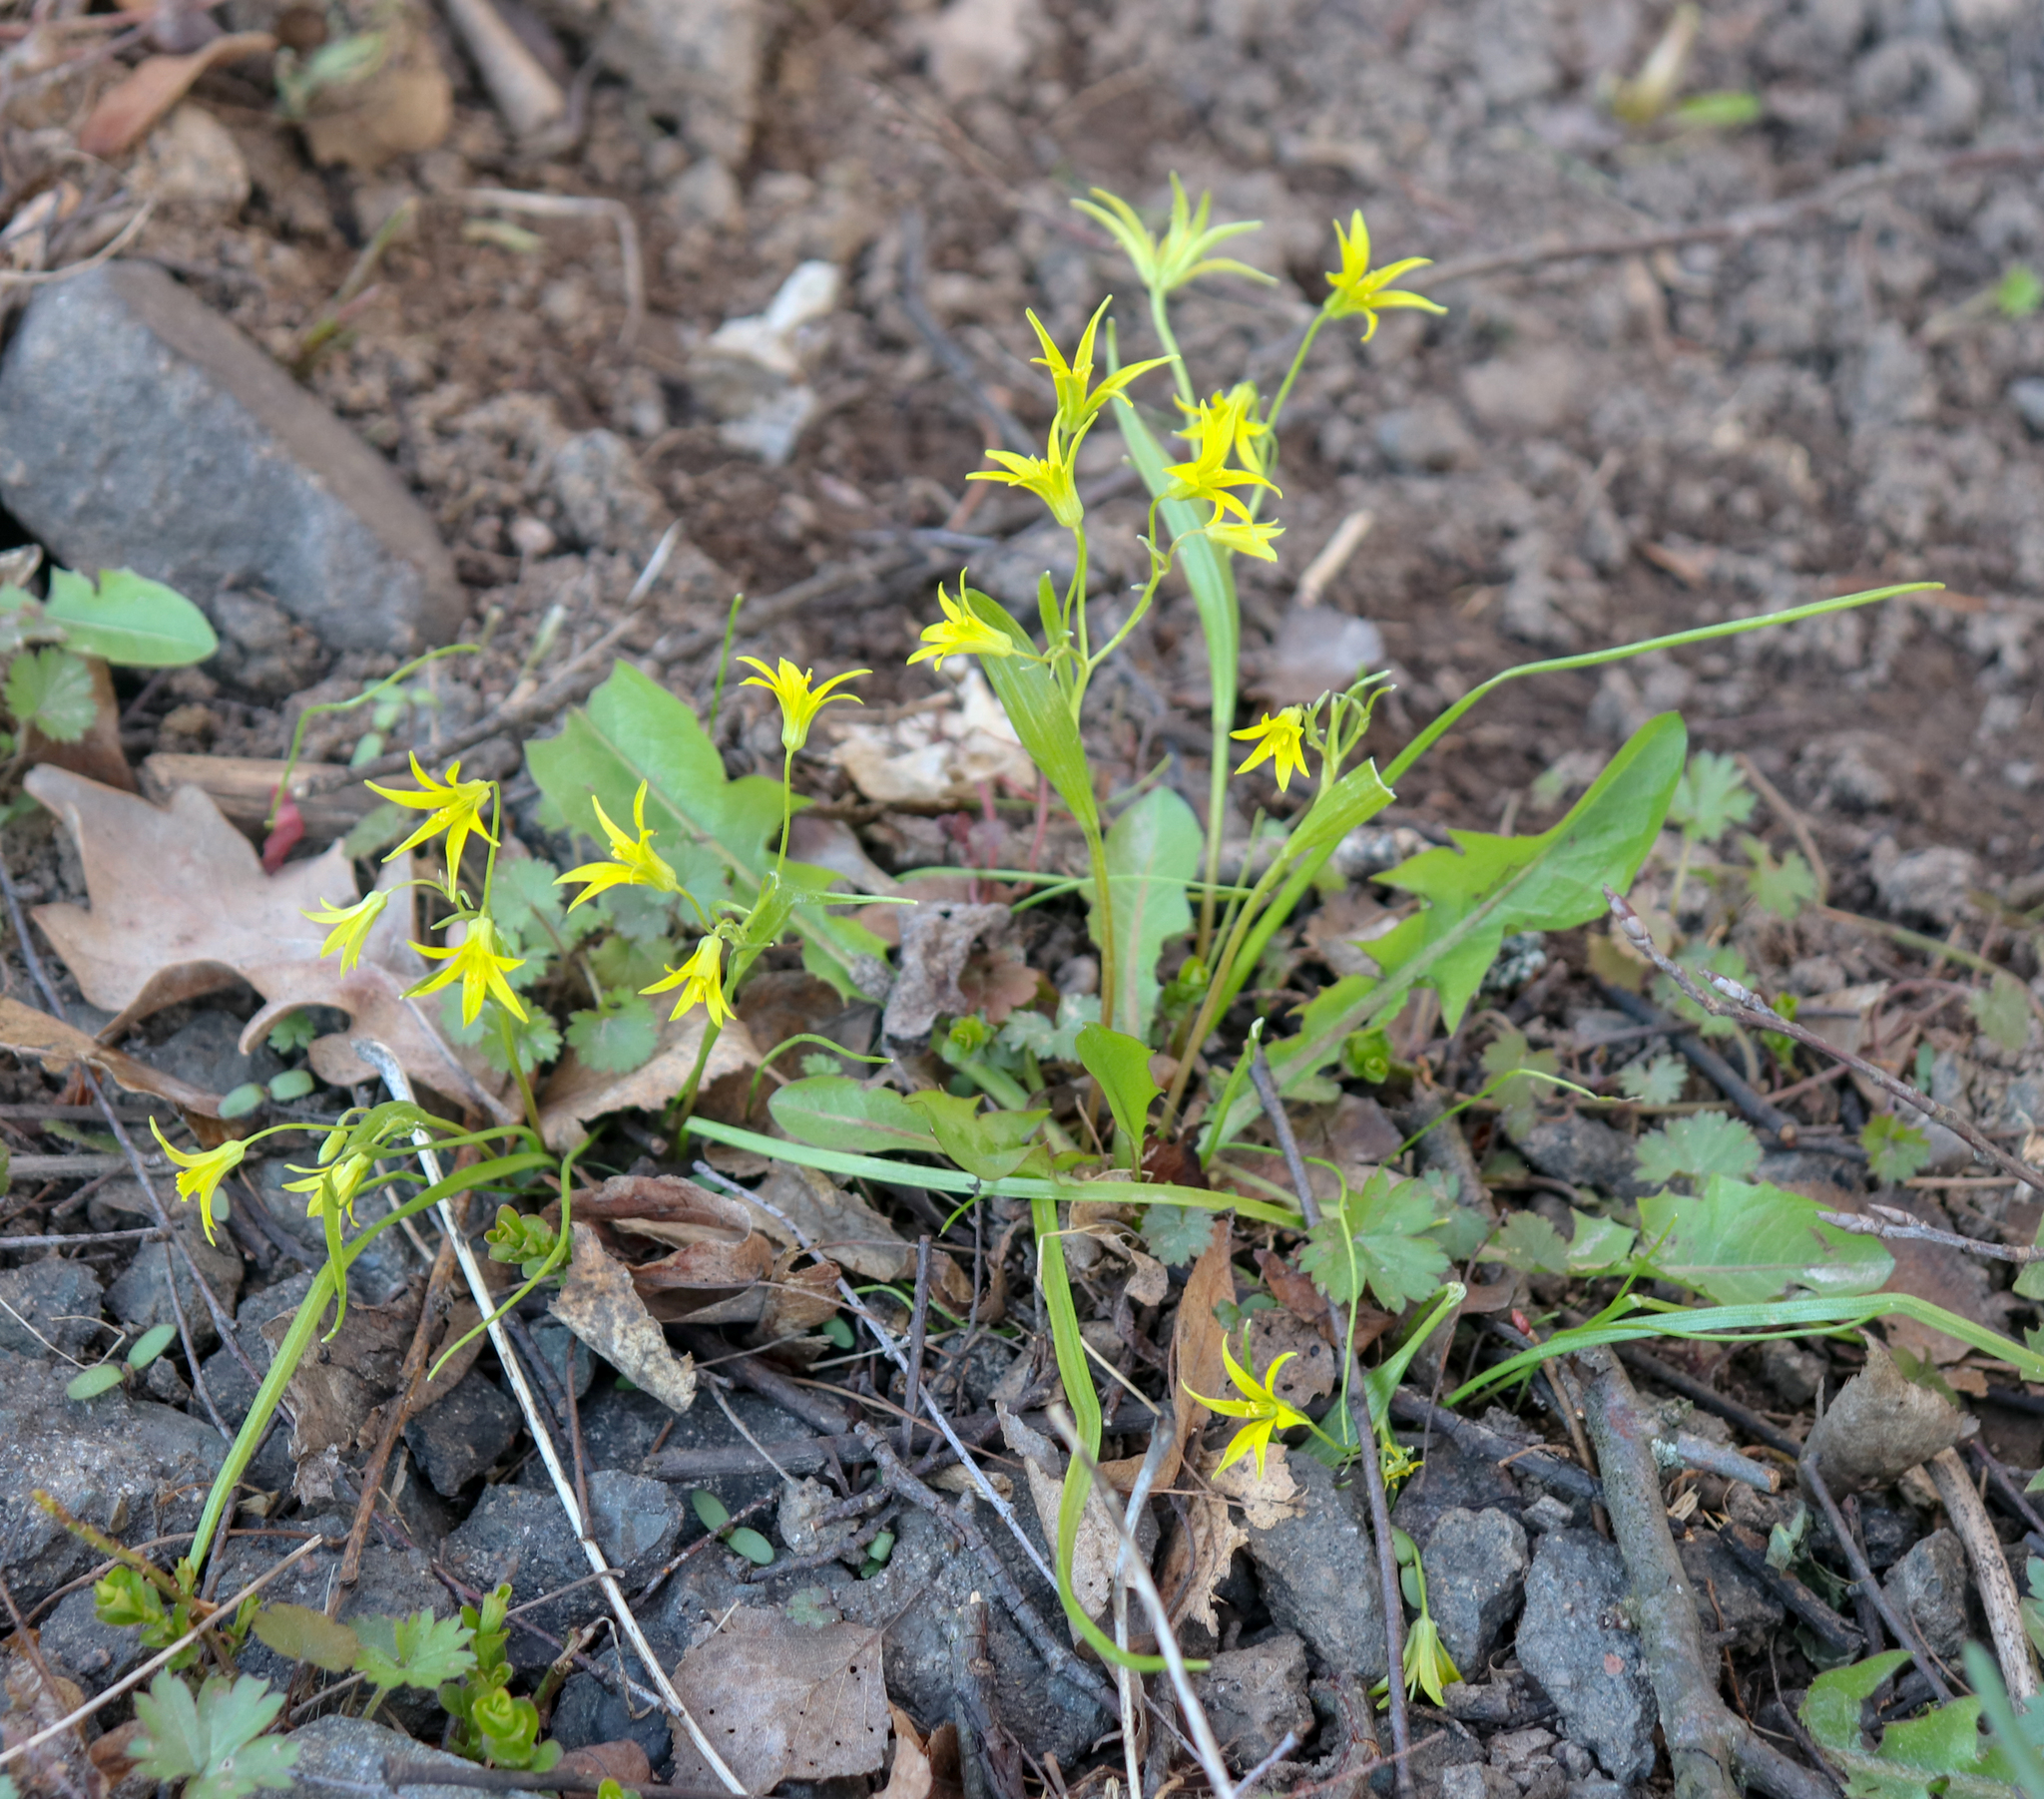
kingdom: Plantae
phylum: Tracheophyta
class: Liliopsida
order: Liliales
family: Liliaceae
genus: Gagea
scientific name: Gagea minima
